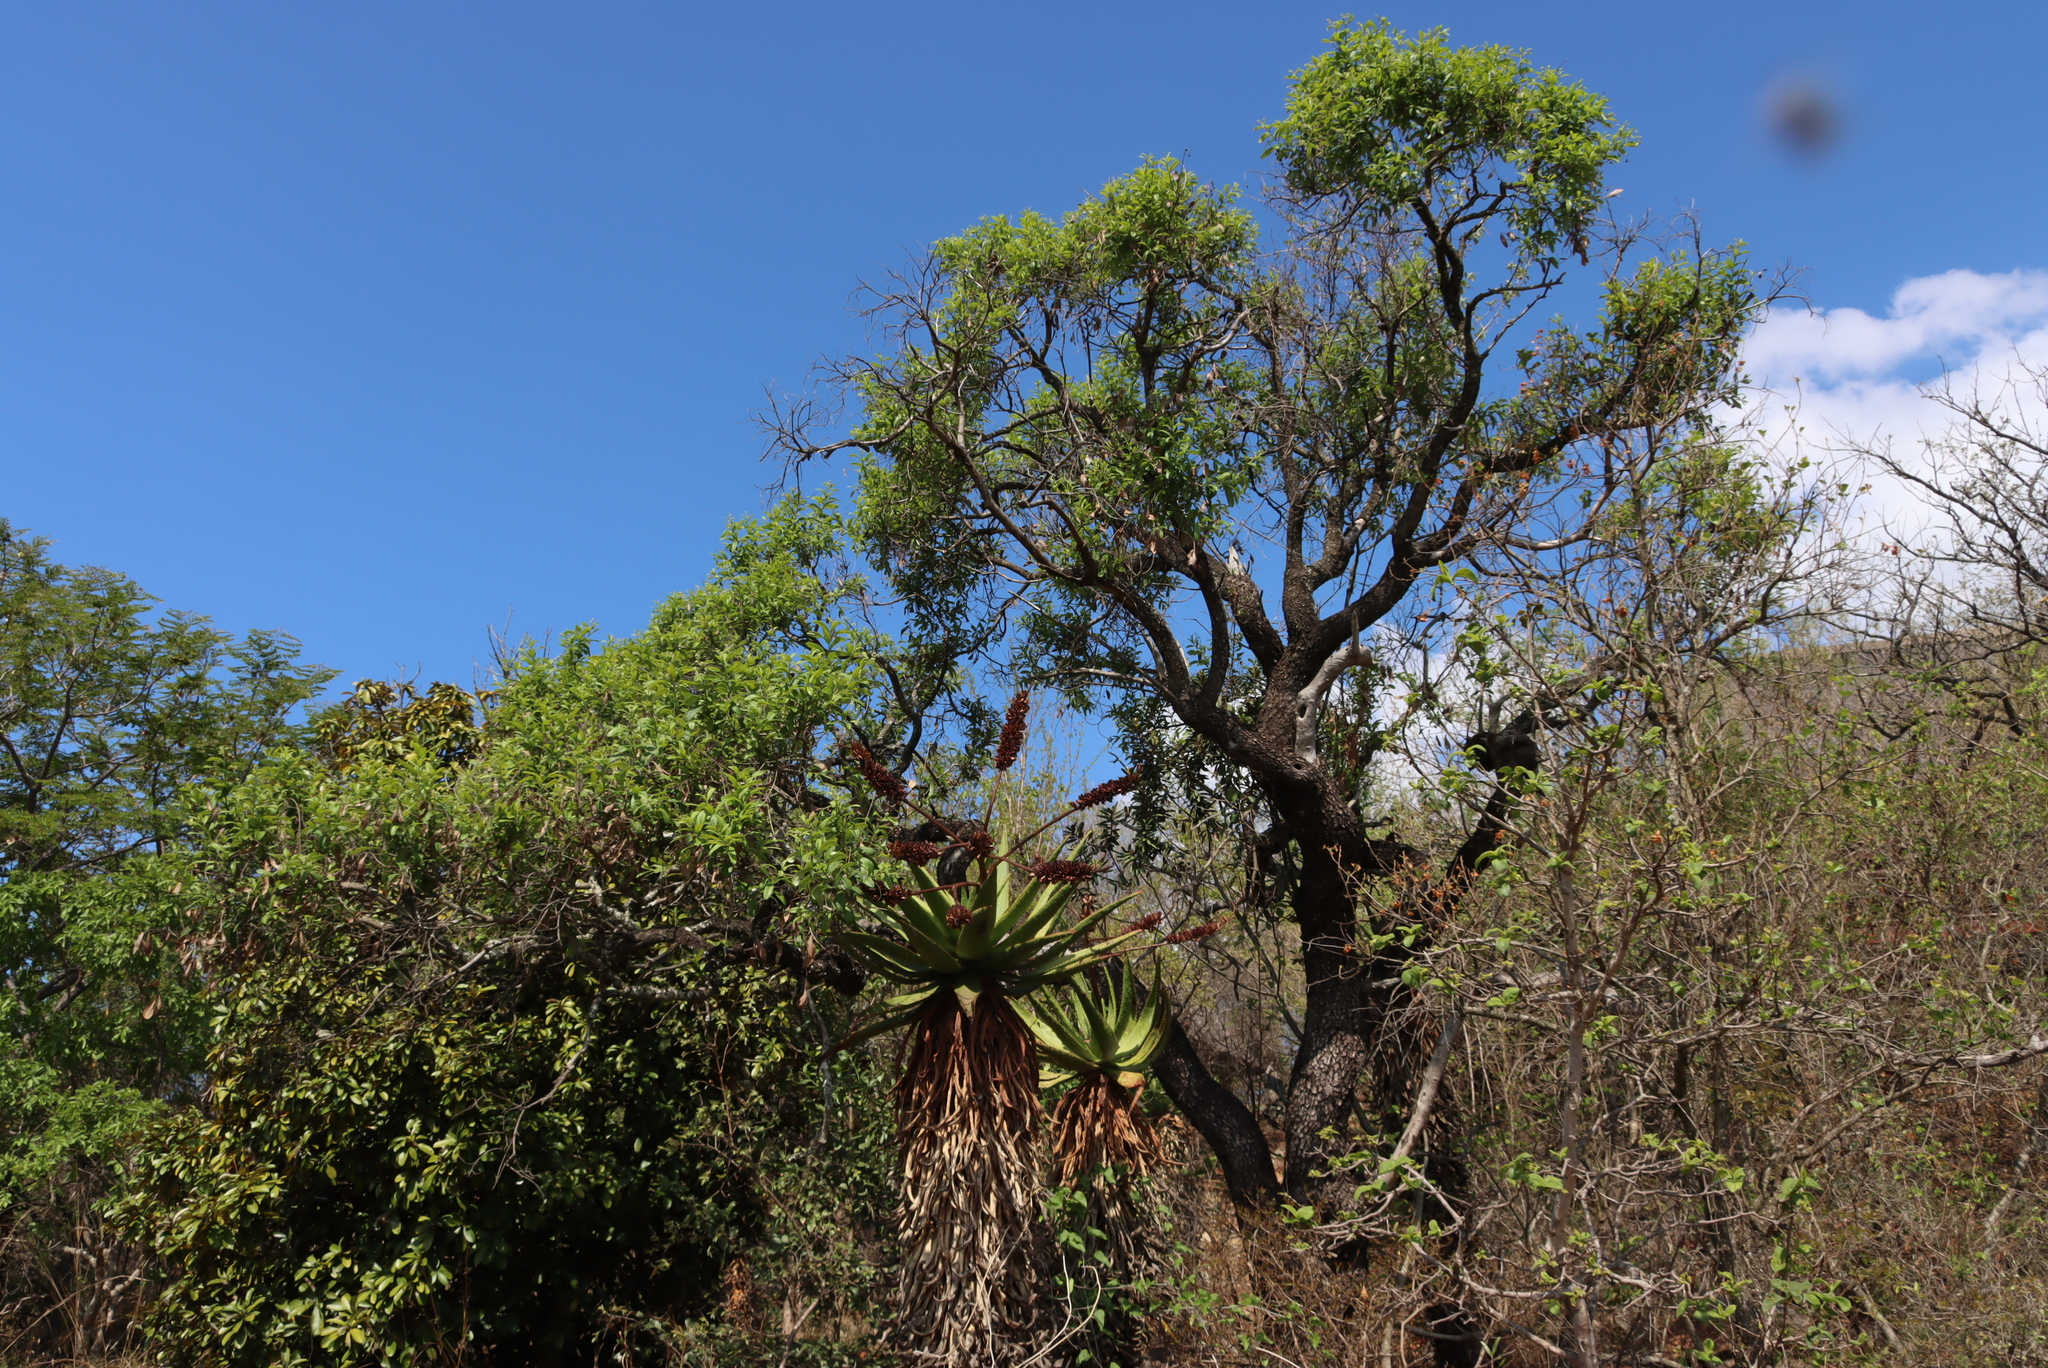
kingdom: Plantae
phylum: Tracheophyta
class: Liliopsida
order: Asparagales
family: Asphodelaceae
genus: Aloe
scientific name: Aloe marlothii
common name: Flat-flowered aloe
